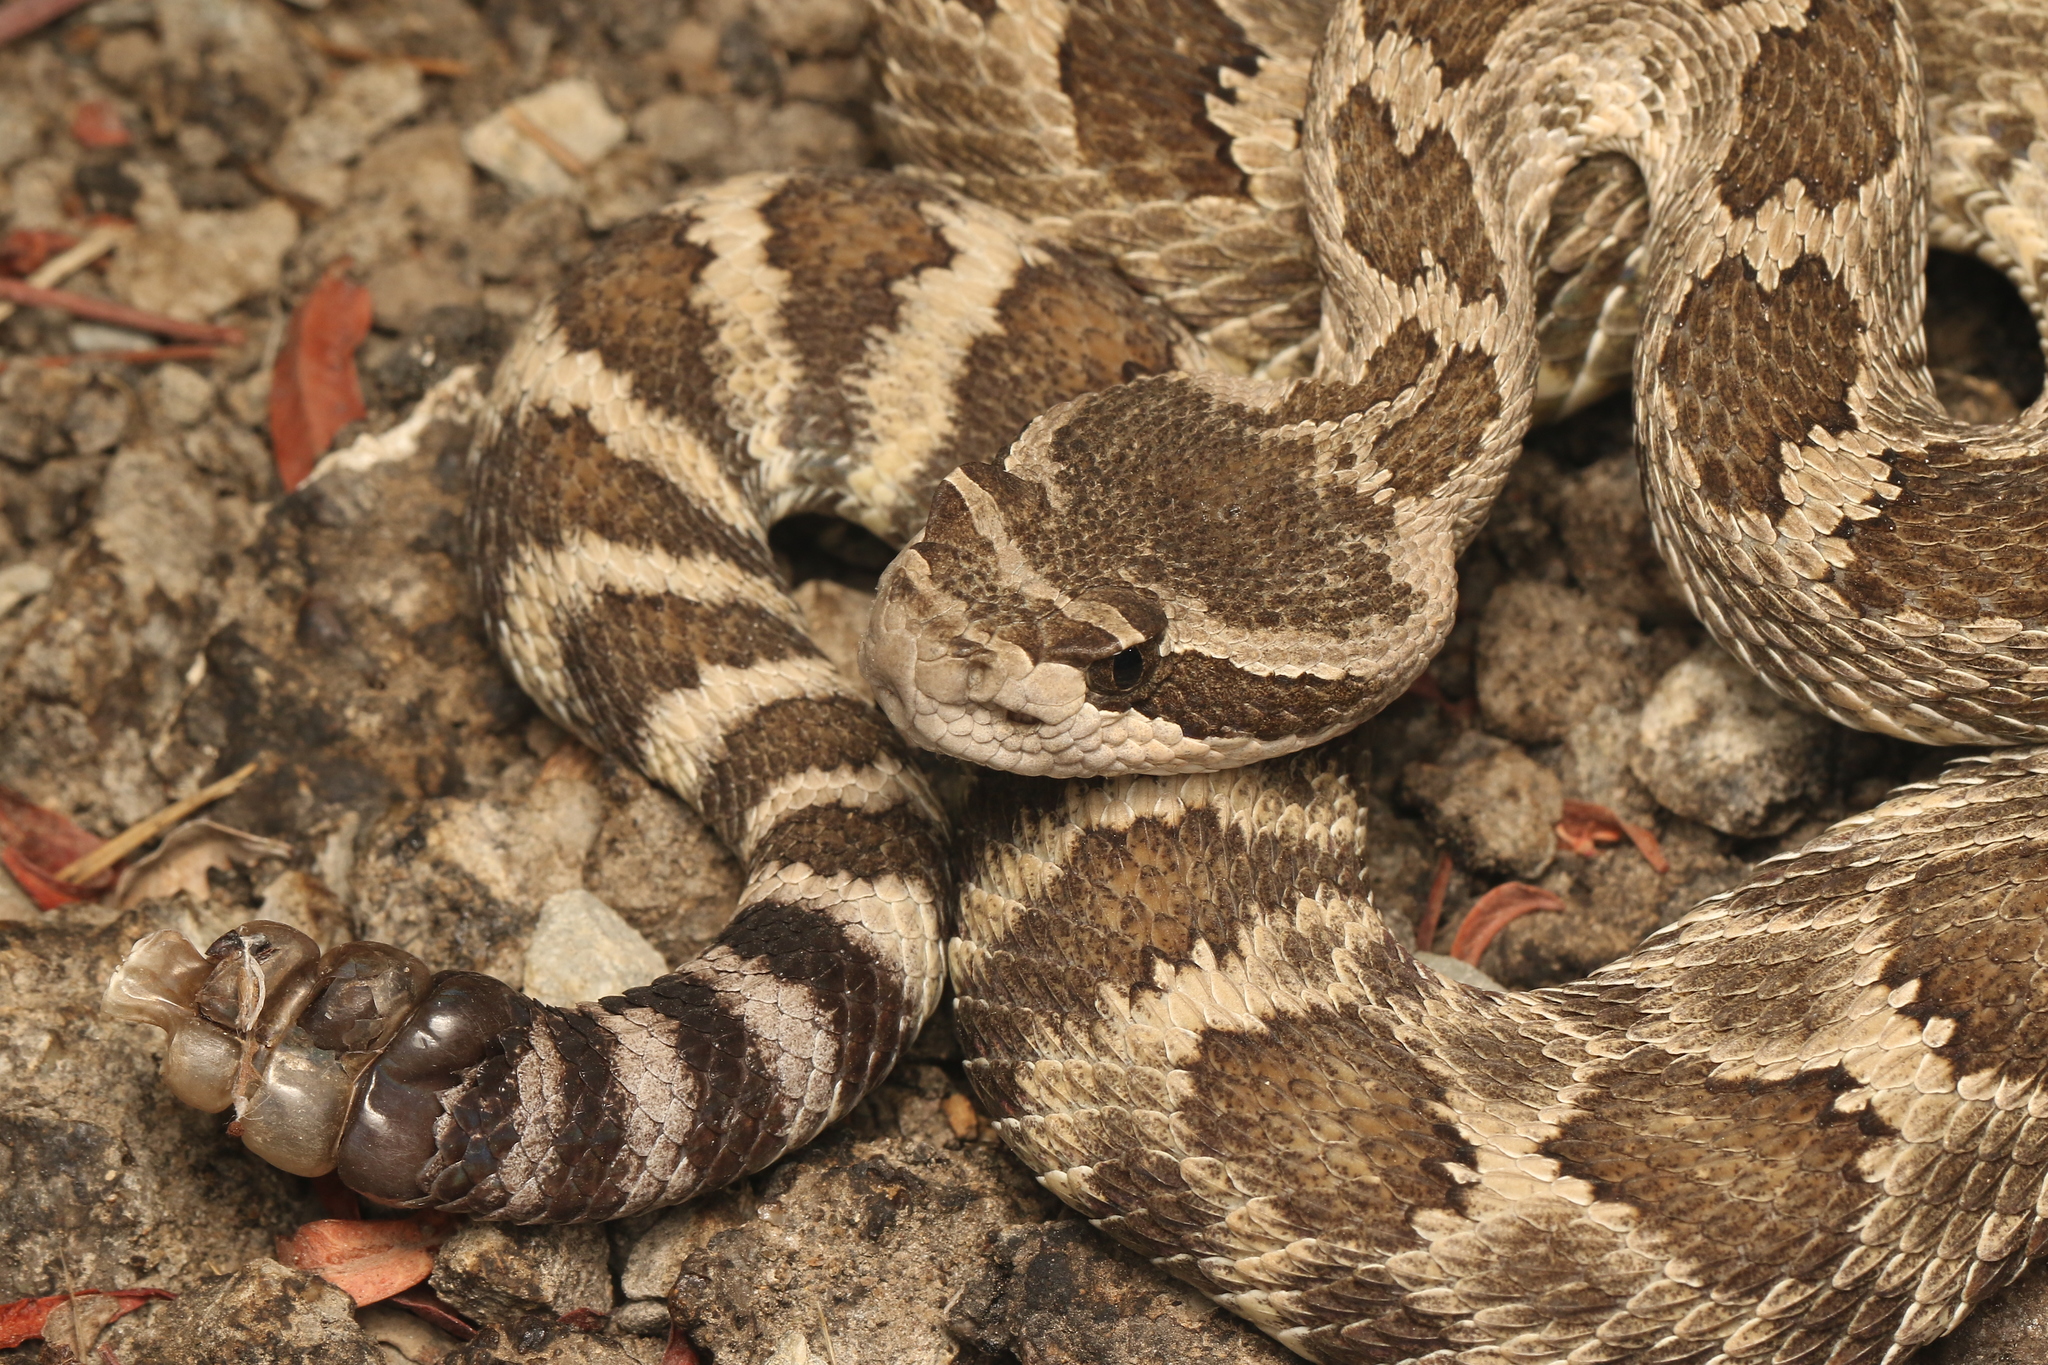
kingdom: Animalia
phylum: Chordata
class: Squamata
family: Viperidae
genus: Crotalus
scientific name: Crotalus oreganus
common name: Abyssus
